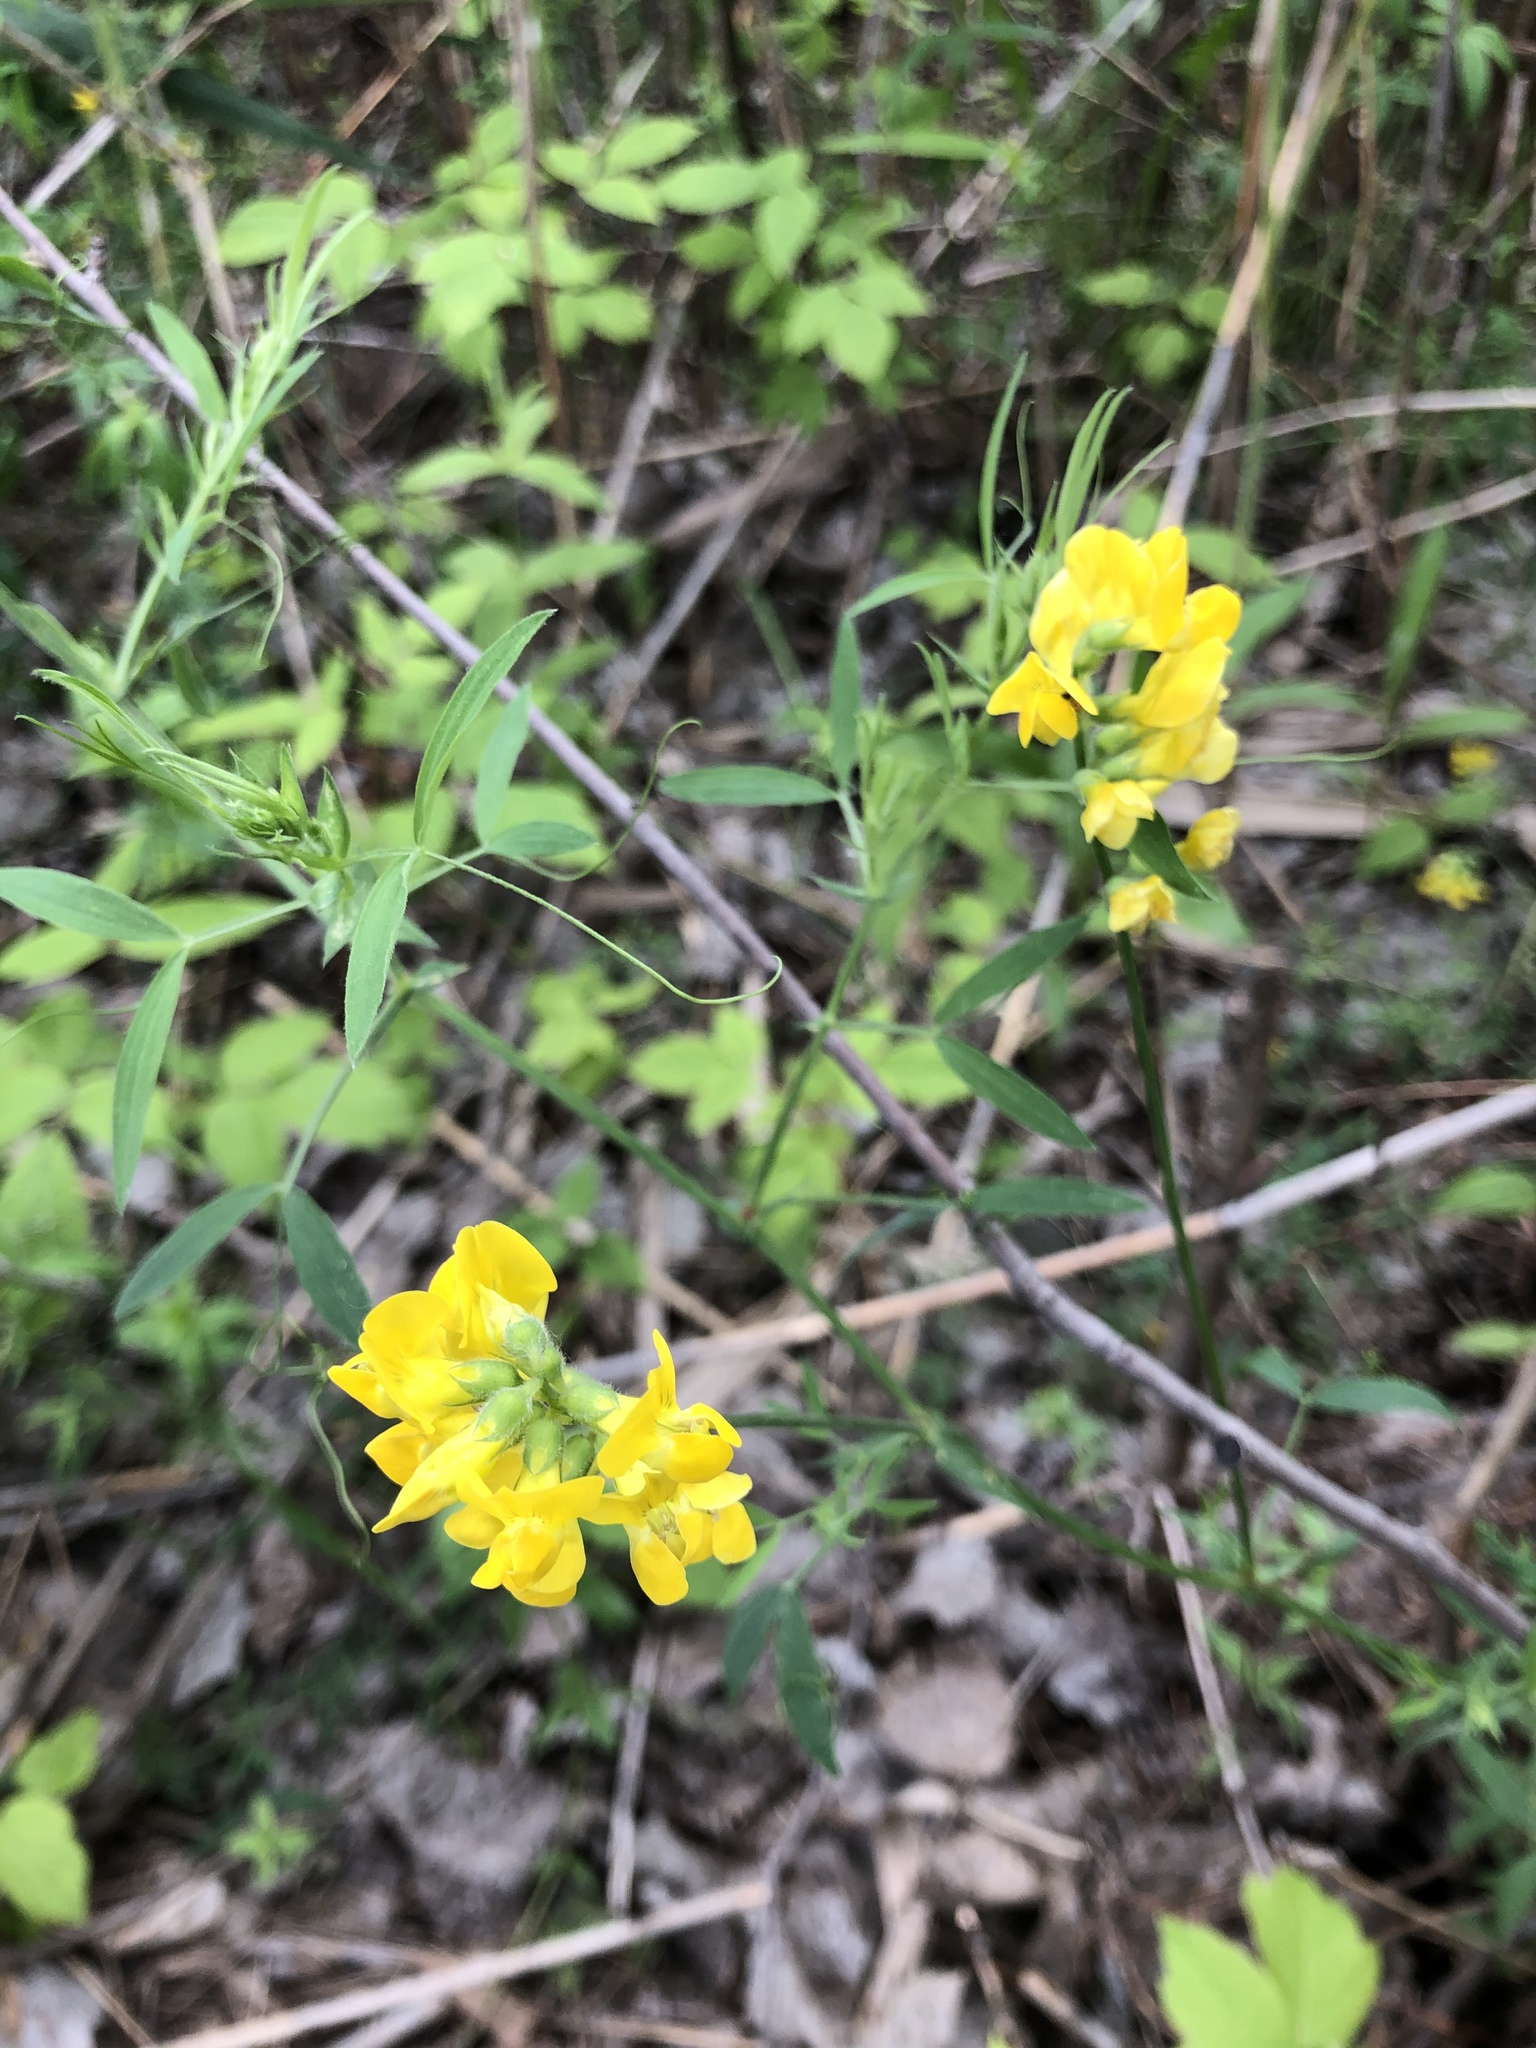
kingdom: Plantae
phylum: Tracheophyta
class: Magnoliopsida
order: Fabales
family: Fabaceae
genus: Lathyrus
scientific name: Lathyrus pratensis
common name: Meadow vetchling
